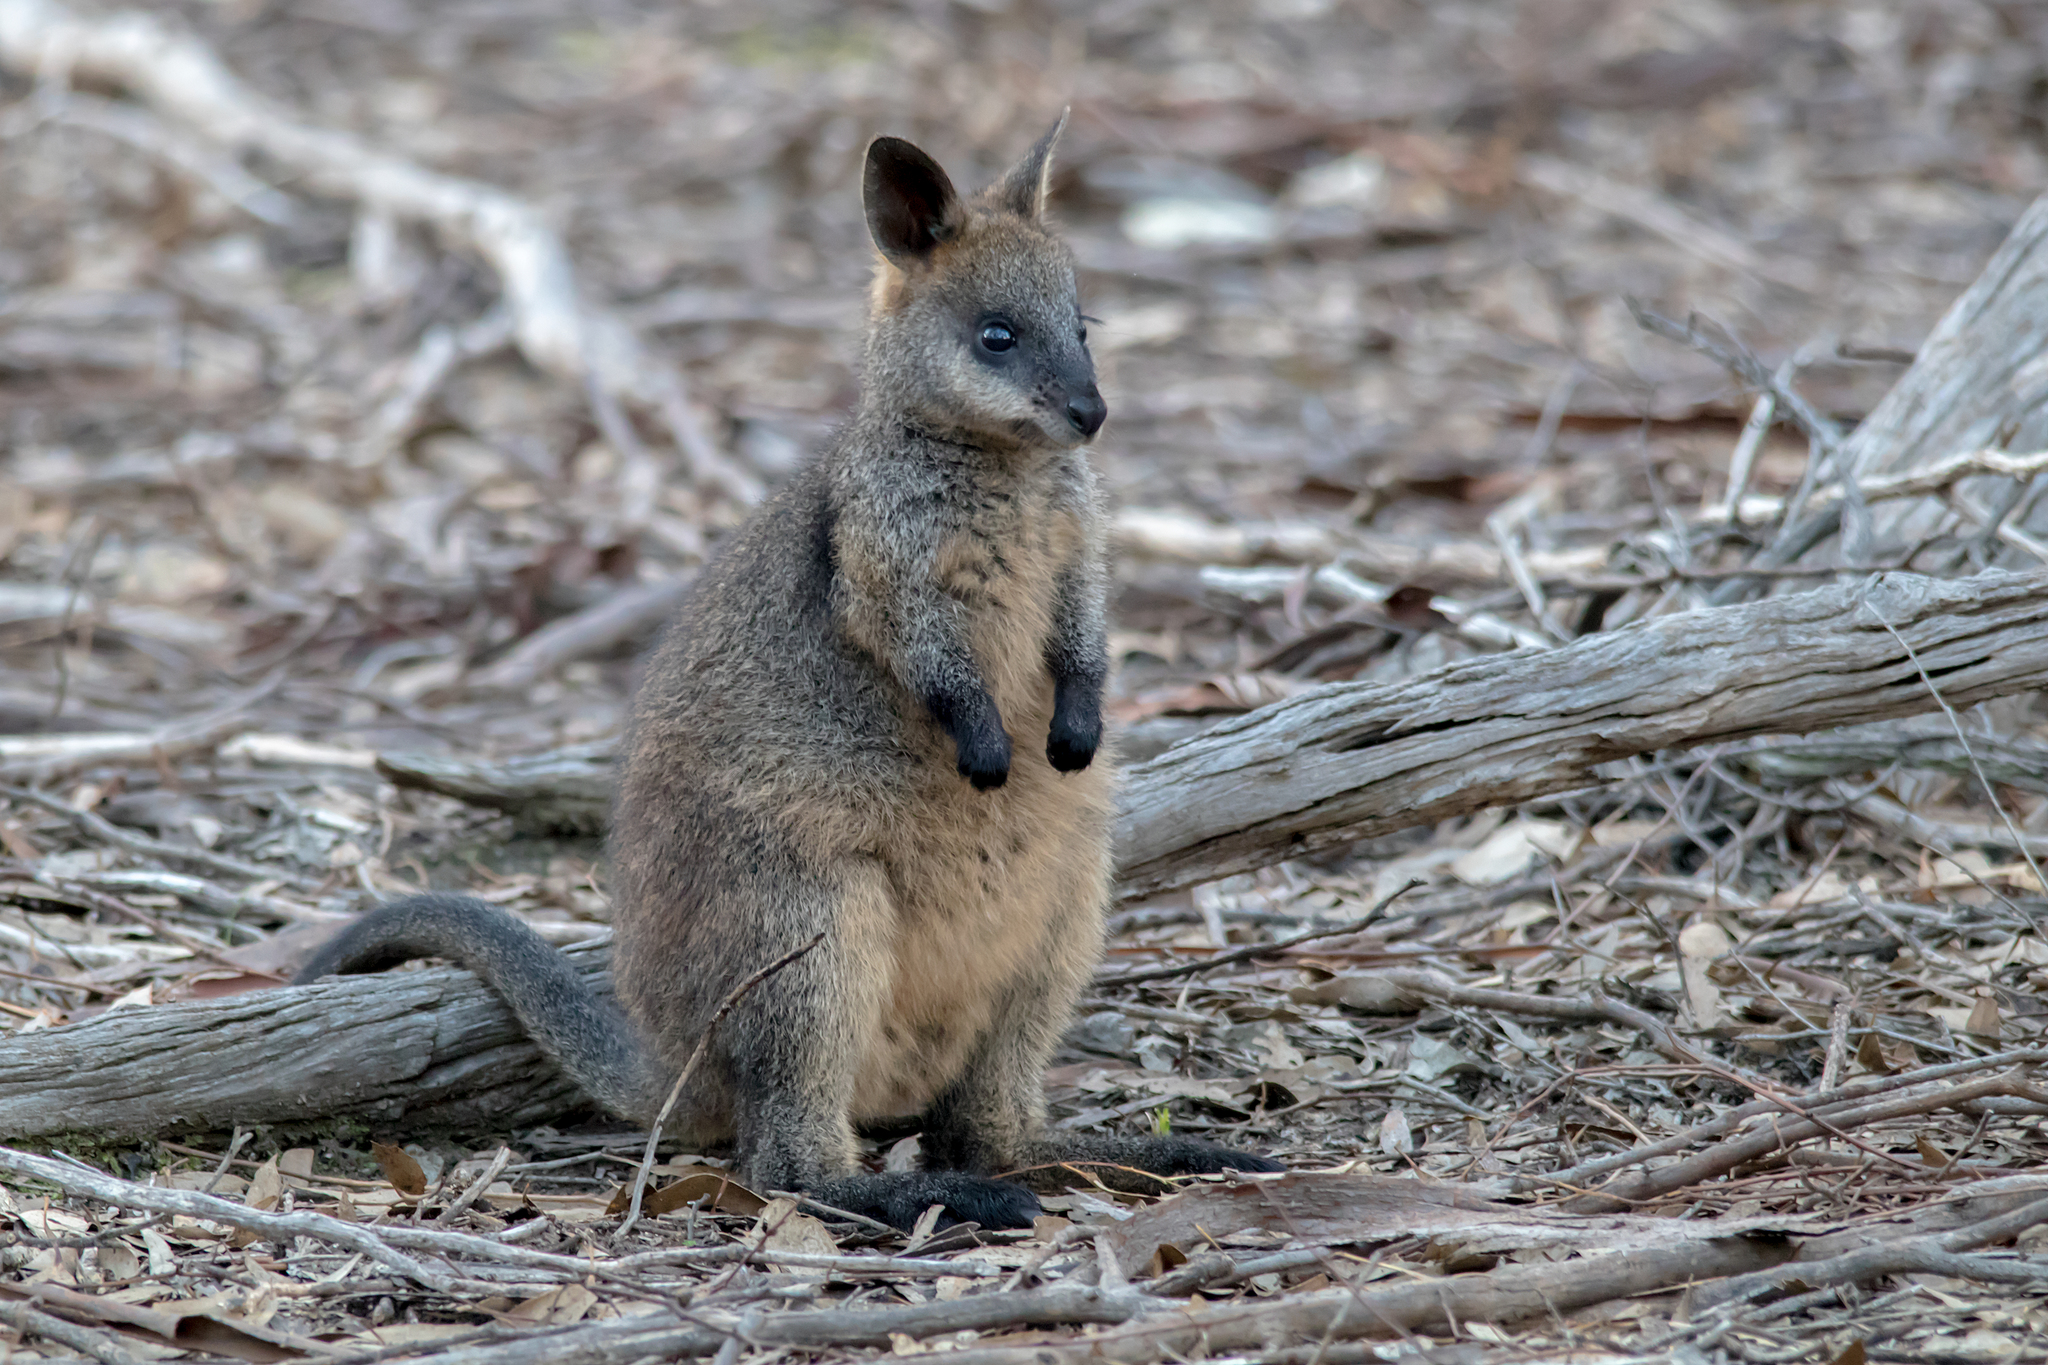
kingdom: Animalia
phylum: Chordata
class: Mammalia
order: Diprotodontia
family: Macropodidae
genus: Wallabia
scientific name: Wallabia bicolor
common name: Swamp wallaby
